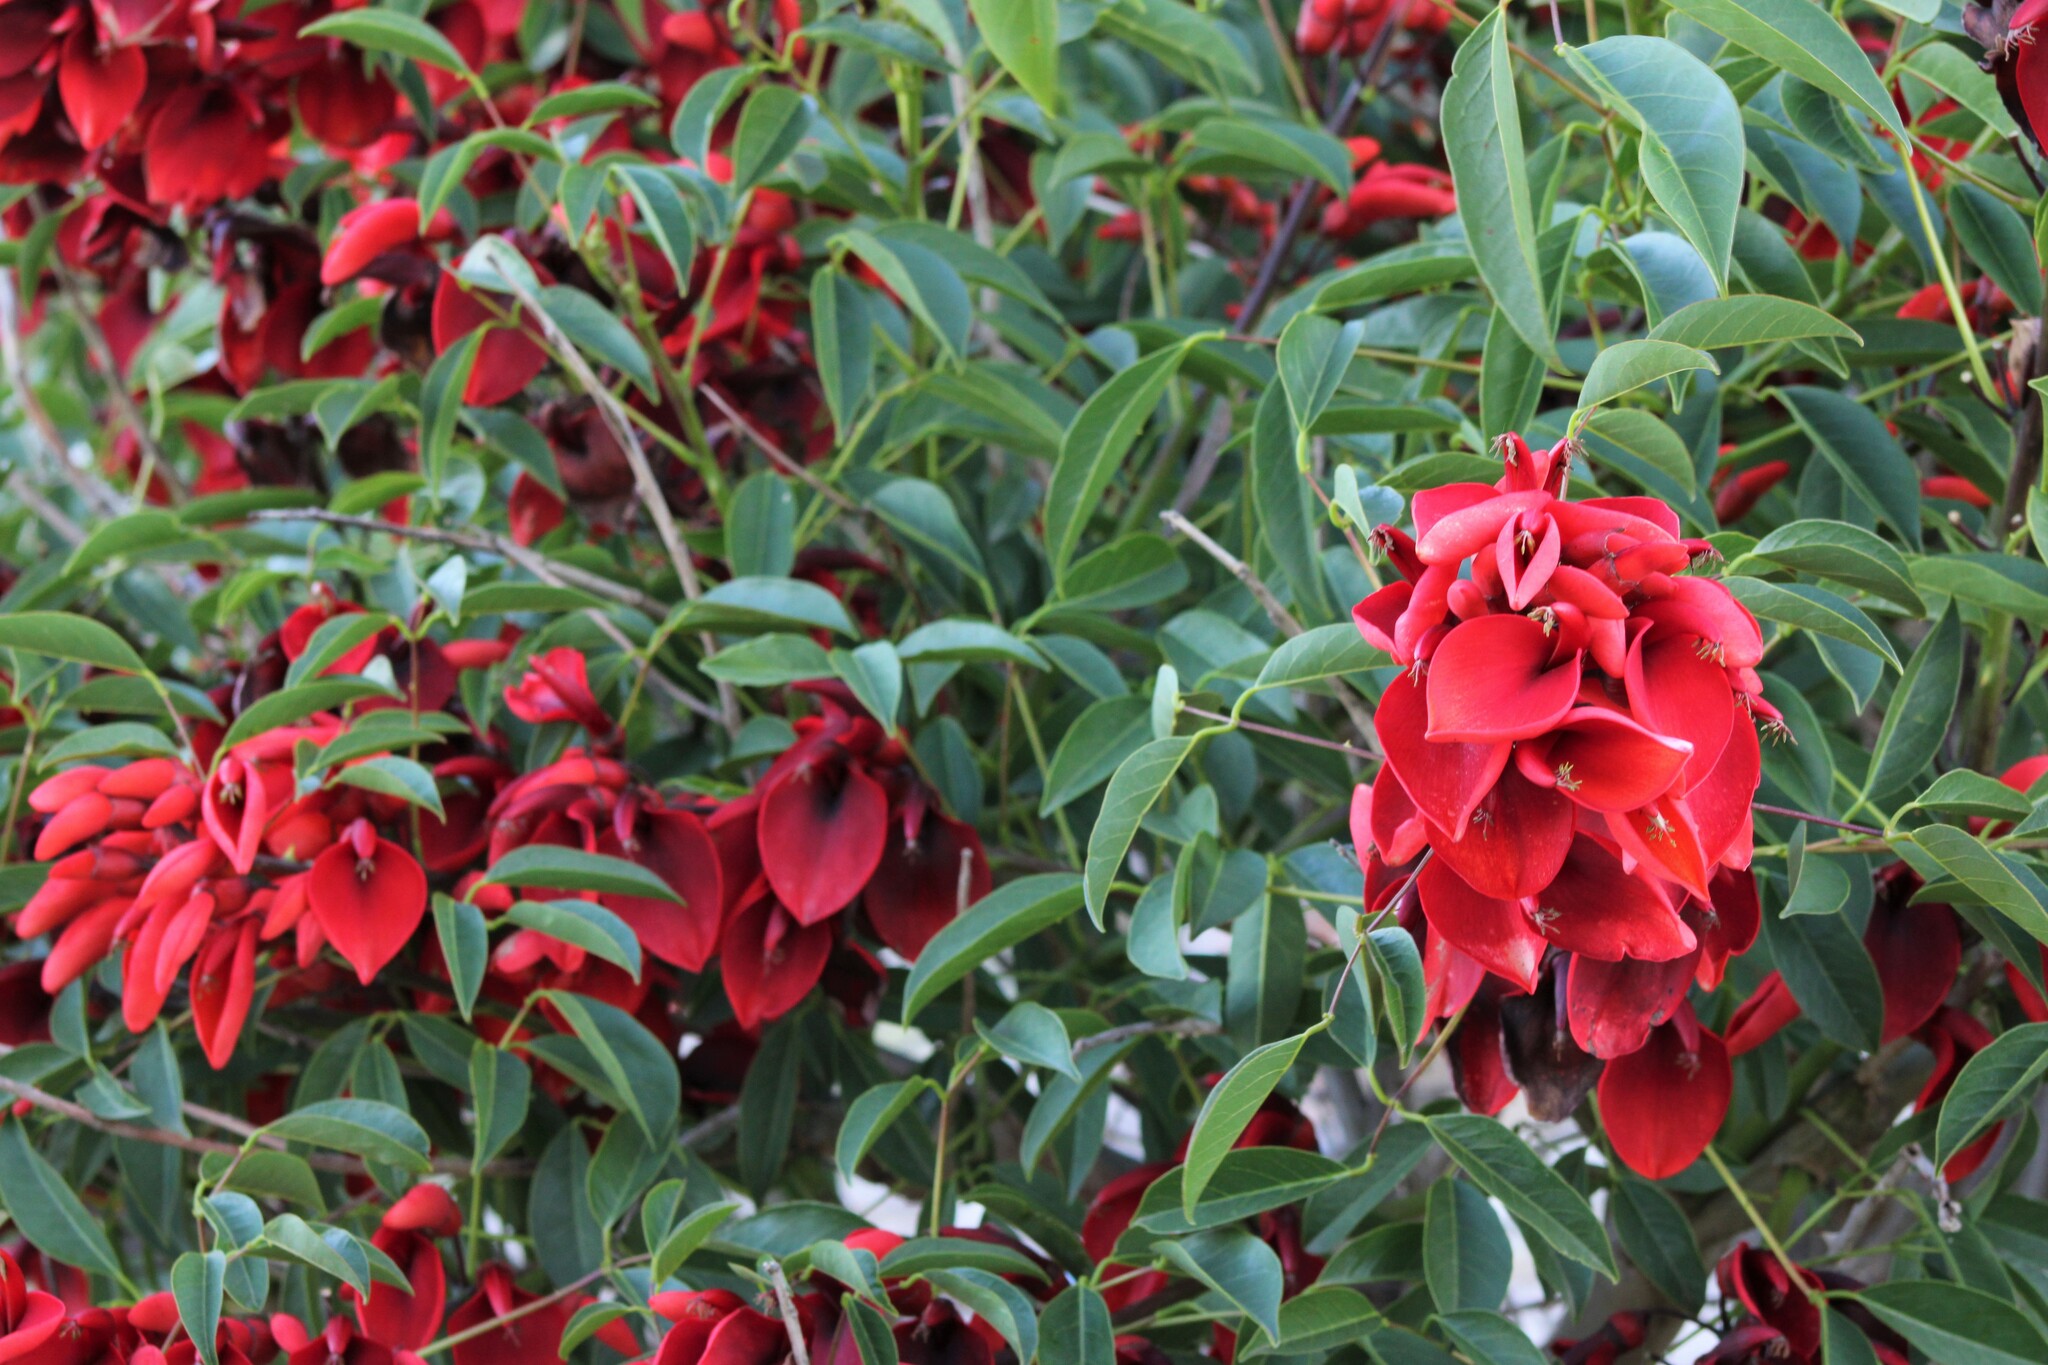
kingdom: Plantae
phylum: Tracheophyta
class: Magnoliopsida
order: Fabales
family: Fabaceae
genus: Erythrina
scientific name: Erythrina crista-galli
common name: Cockspur coral tree
